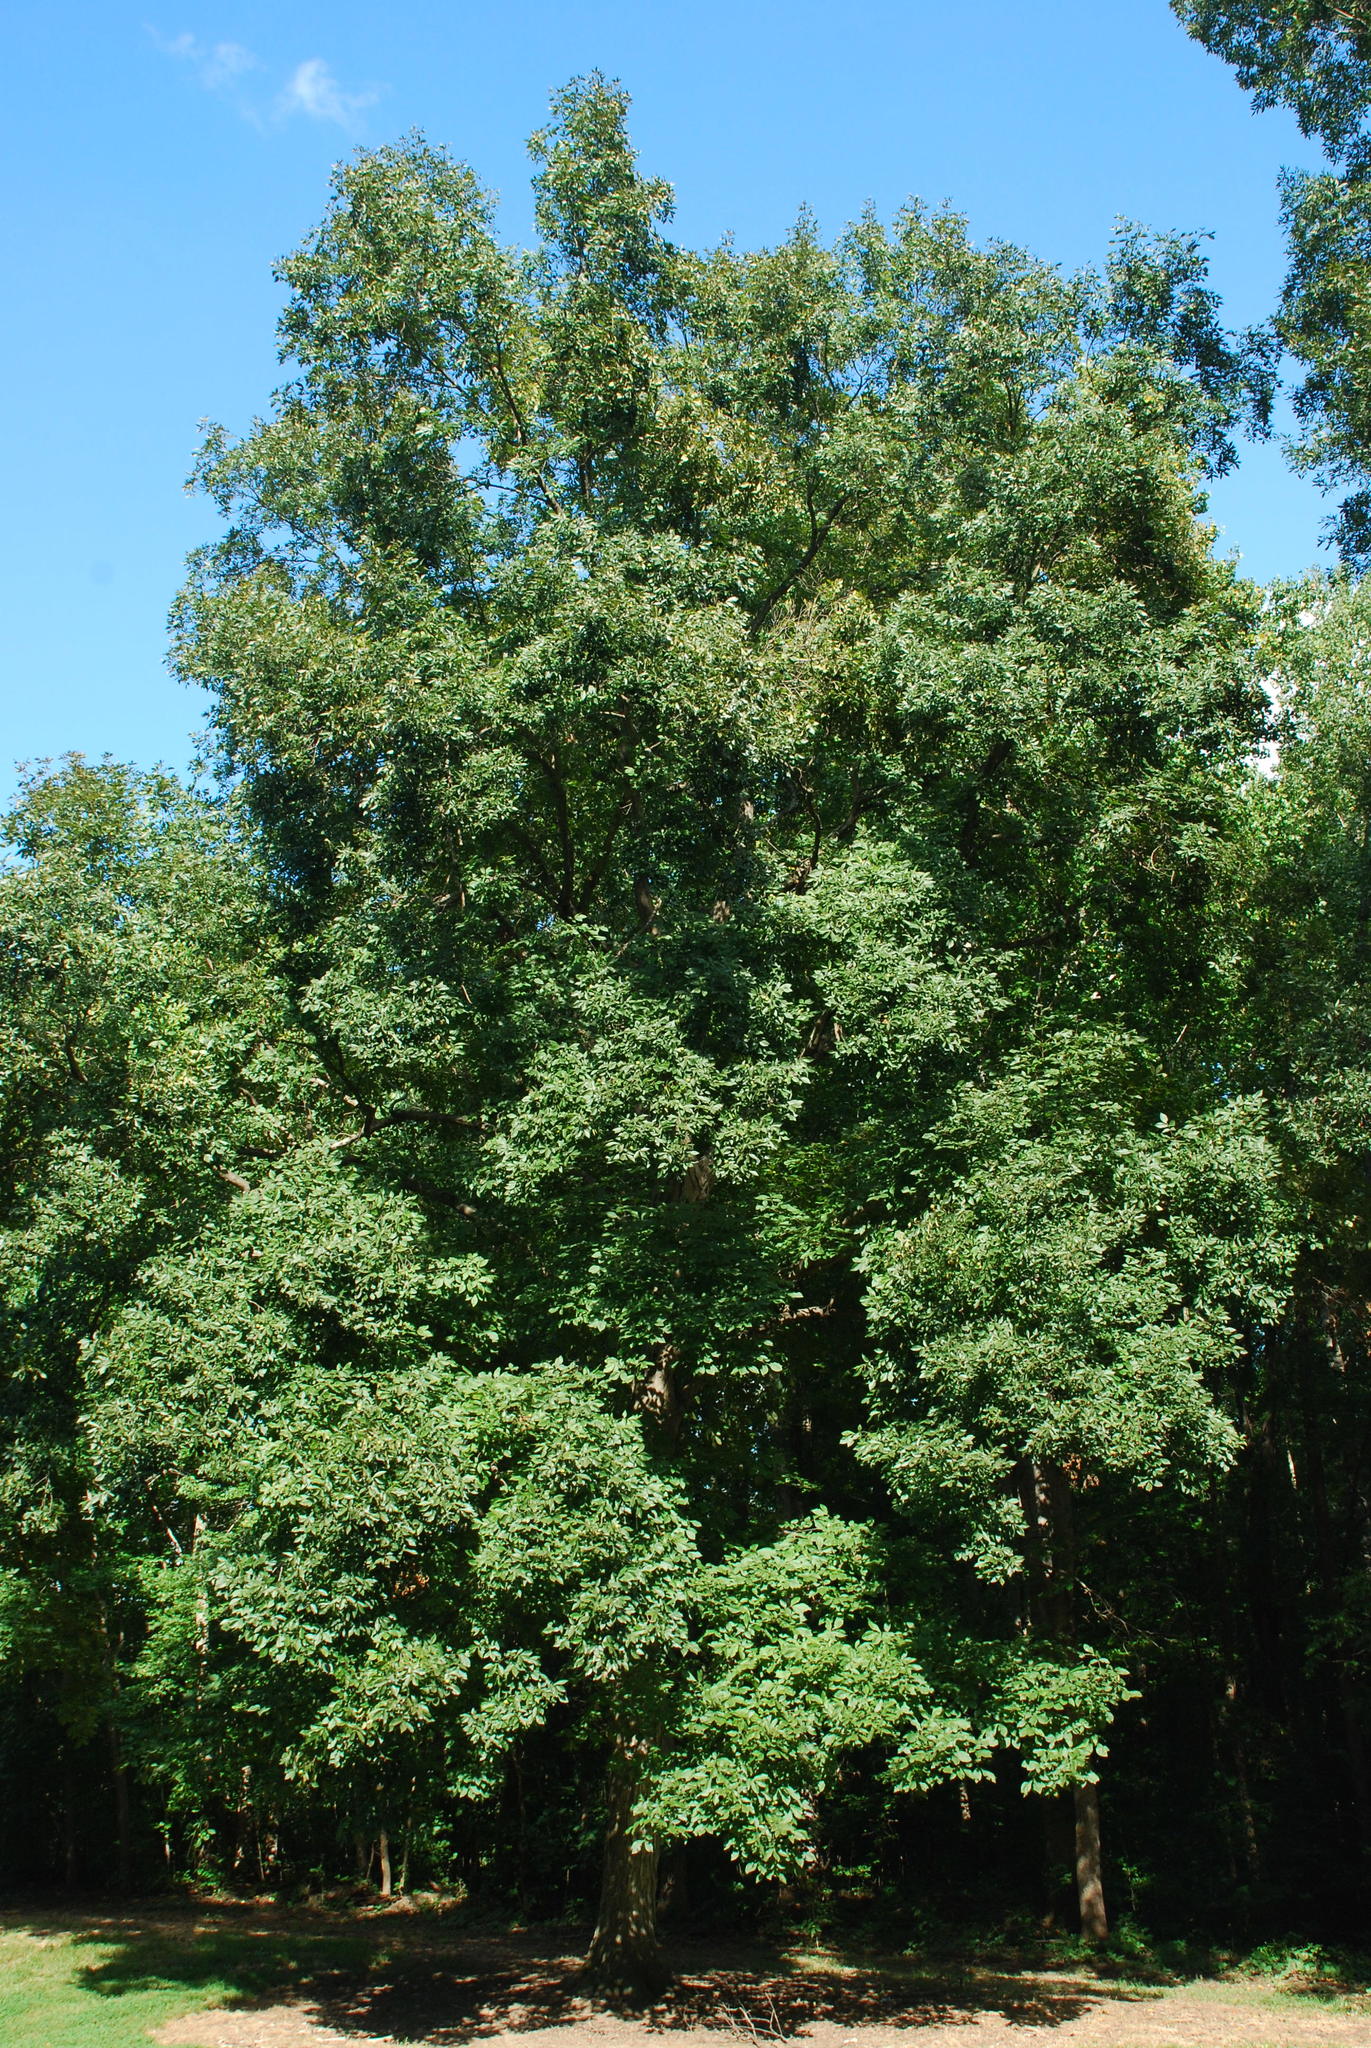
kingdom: Plantae
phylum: Tracheophyta
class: Magnoliopsida
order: Fagales
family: Juglandaceae
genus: Carya
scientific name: Carya ovata
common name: Shagbark hickory
